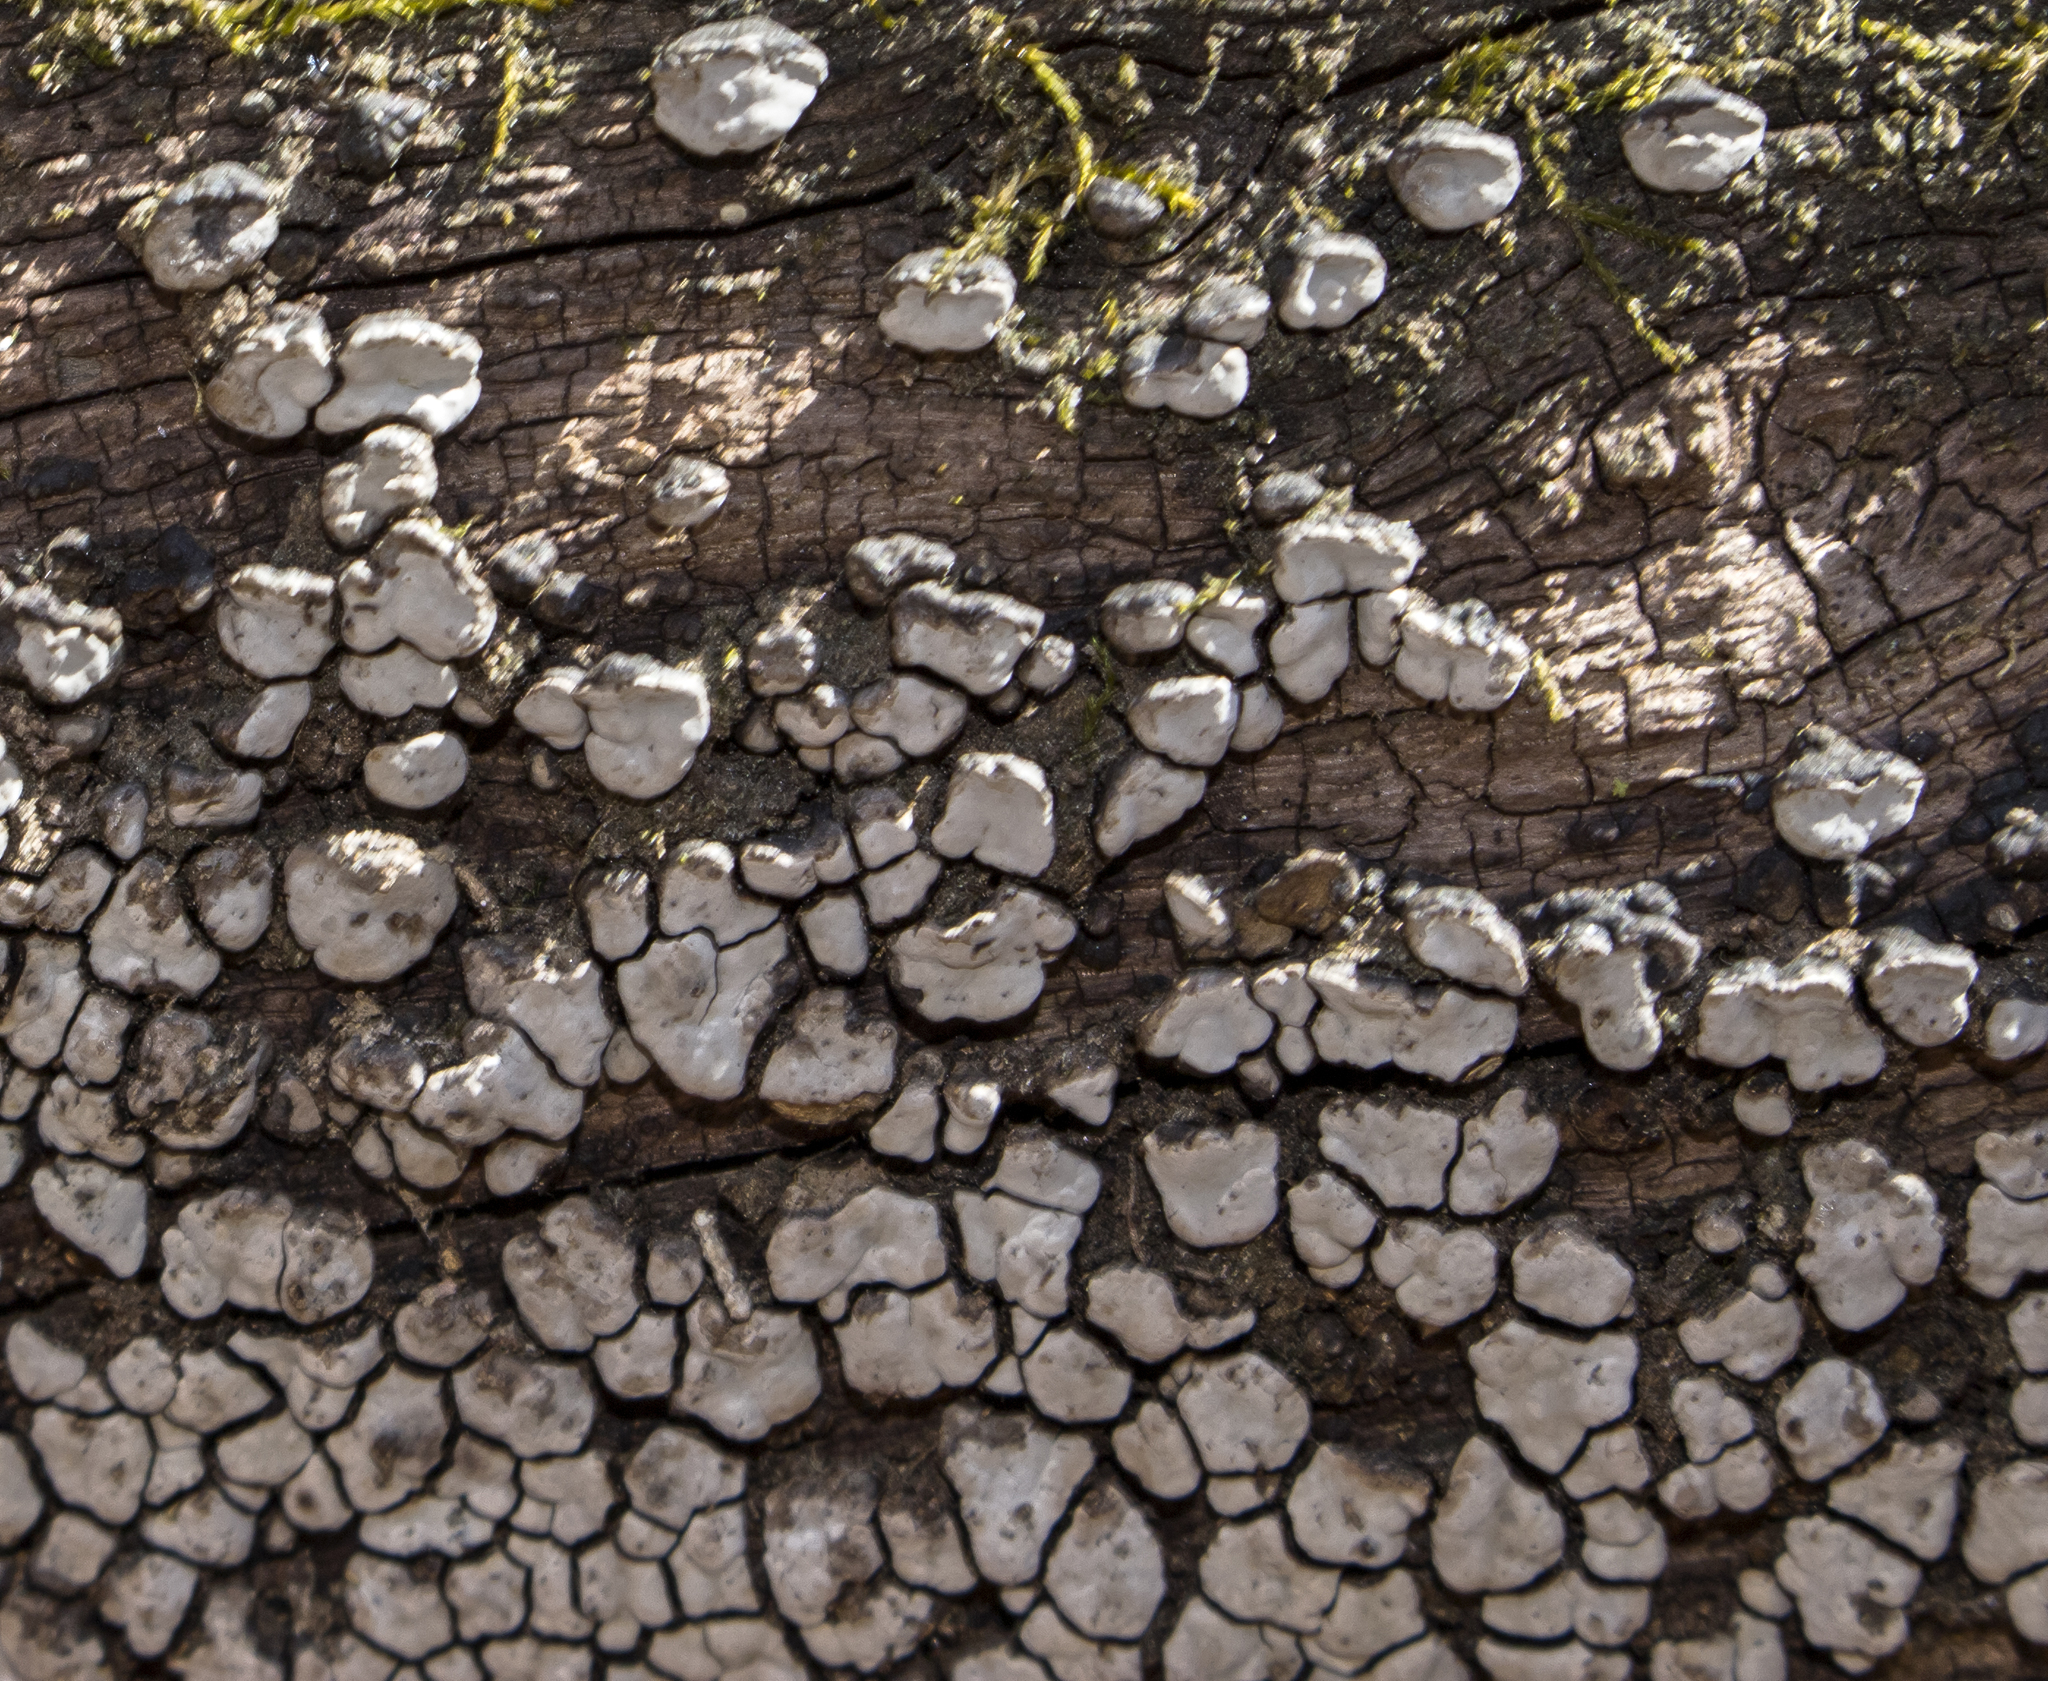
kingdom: Fungi
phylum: Basidiomycota
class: Agaricomycetes
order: Russulales
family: Stereaceae
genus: Xylobolus
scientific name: Xylobolus frustulatus
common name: Ceramic parchment
